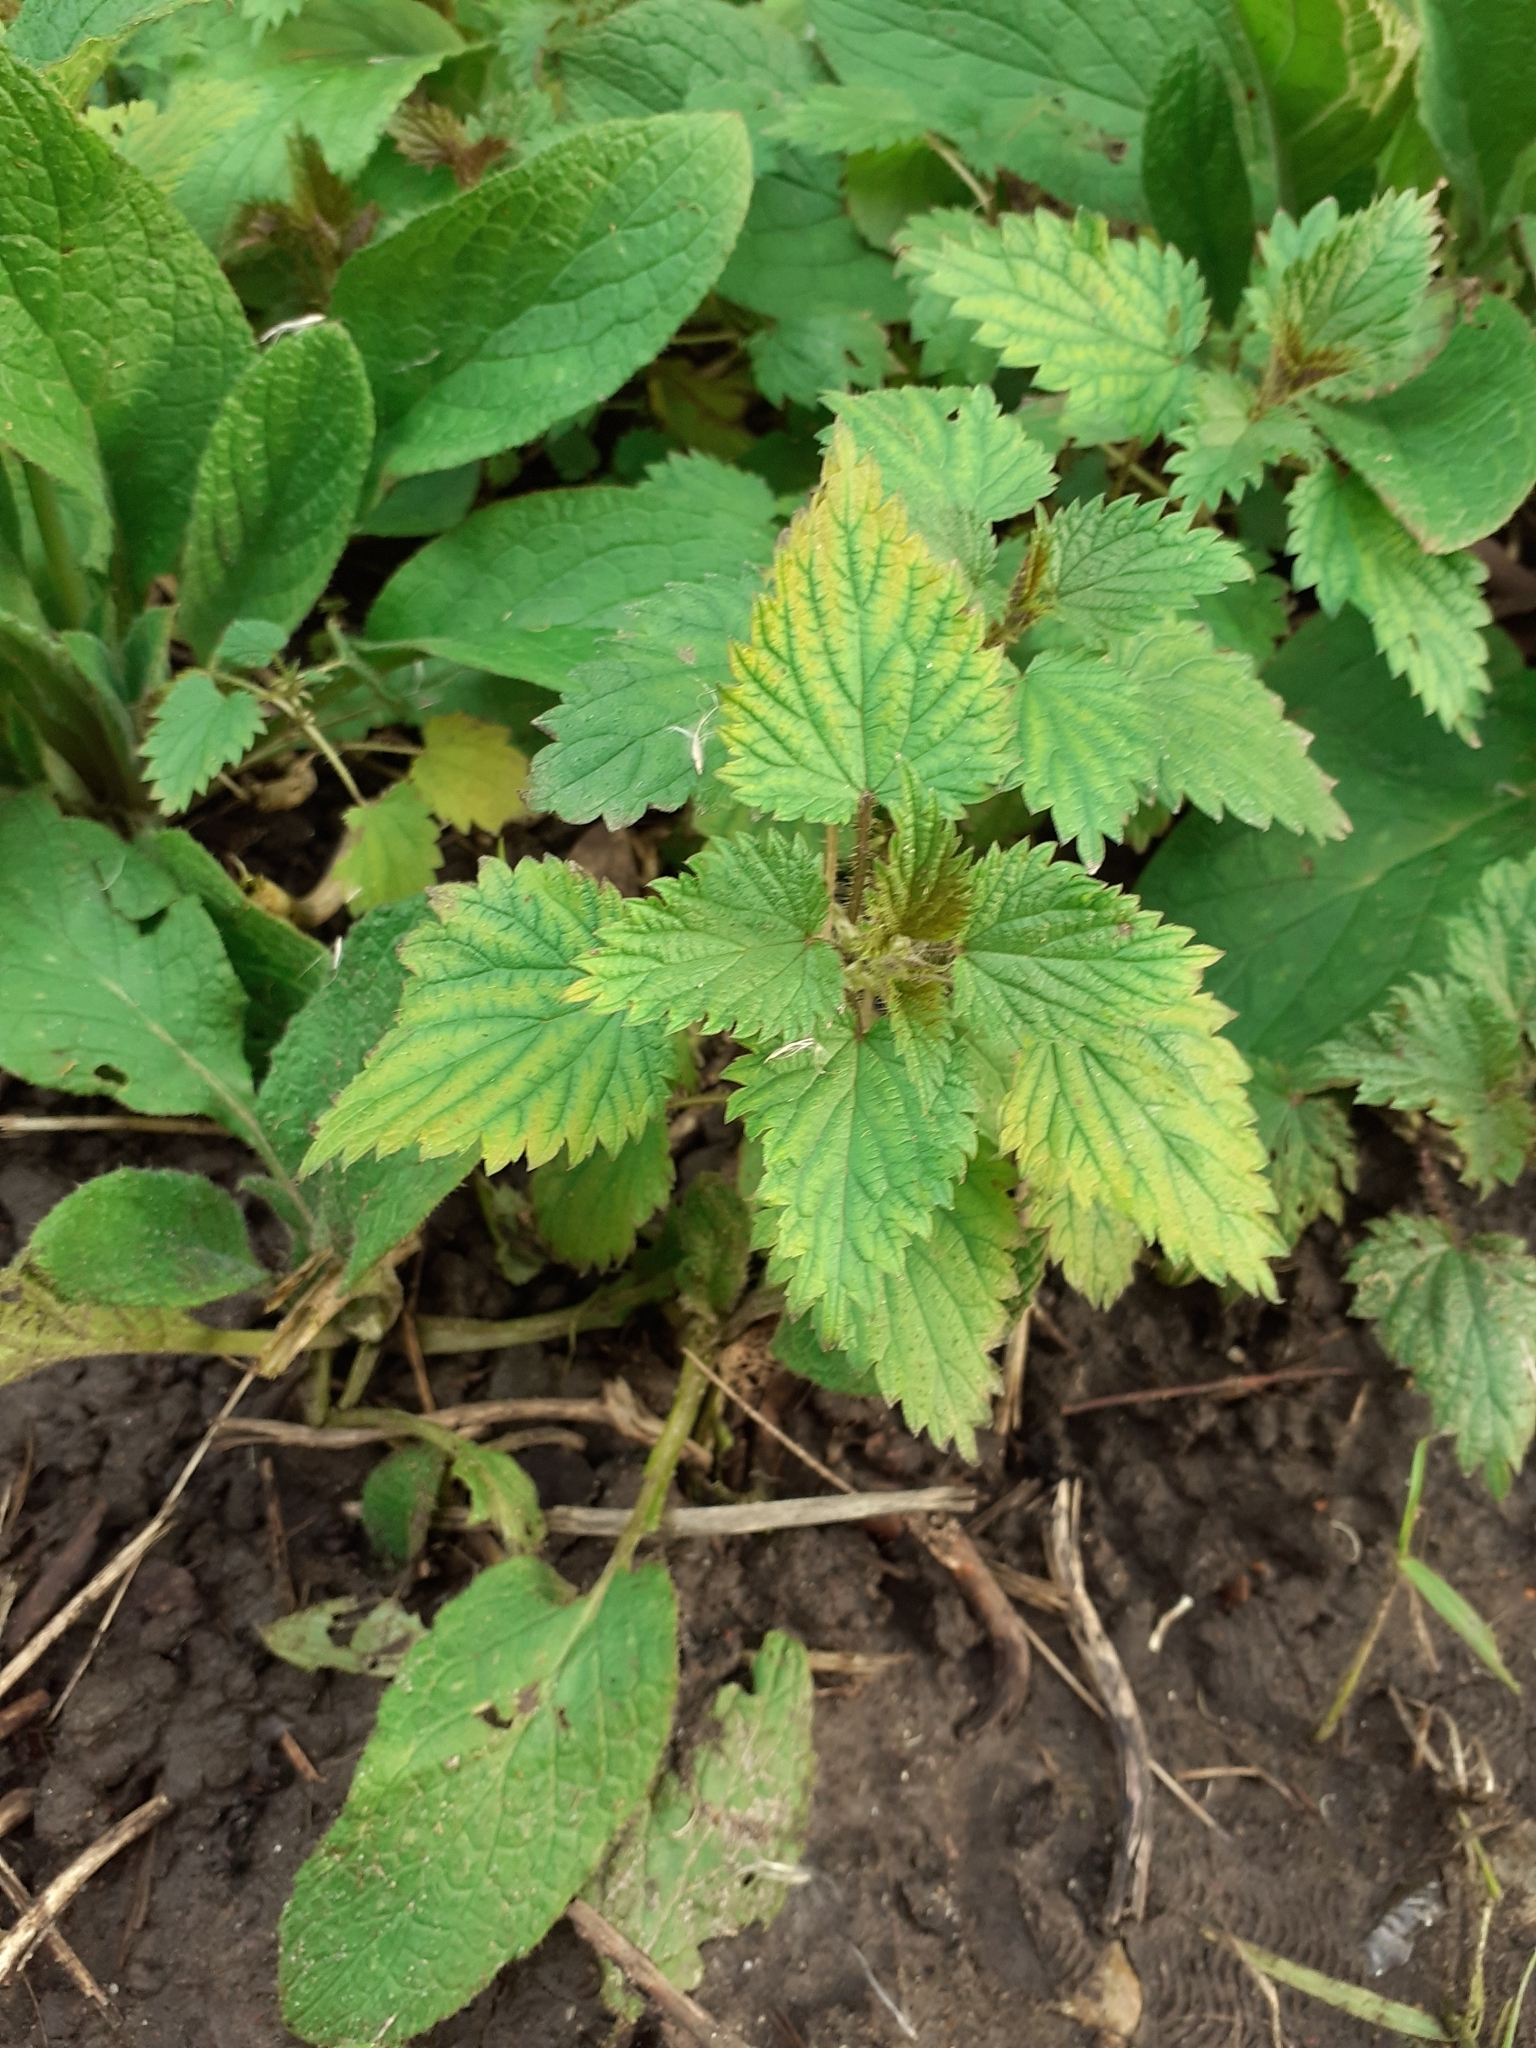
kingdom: Plantae
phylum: Tracheophyta
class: Magnoliopsida
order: Rosales
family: Urticaceae
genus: Urtica
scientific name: Urtica dioica
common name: Common nettle
